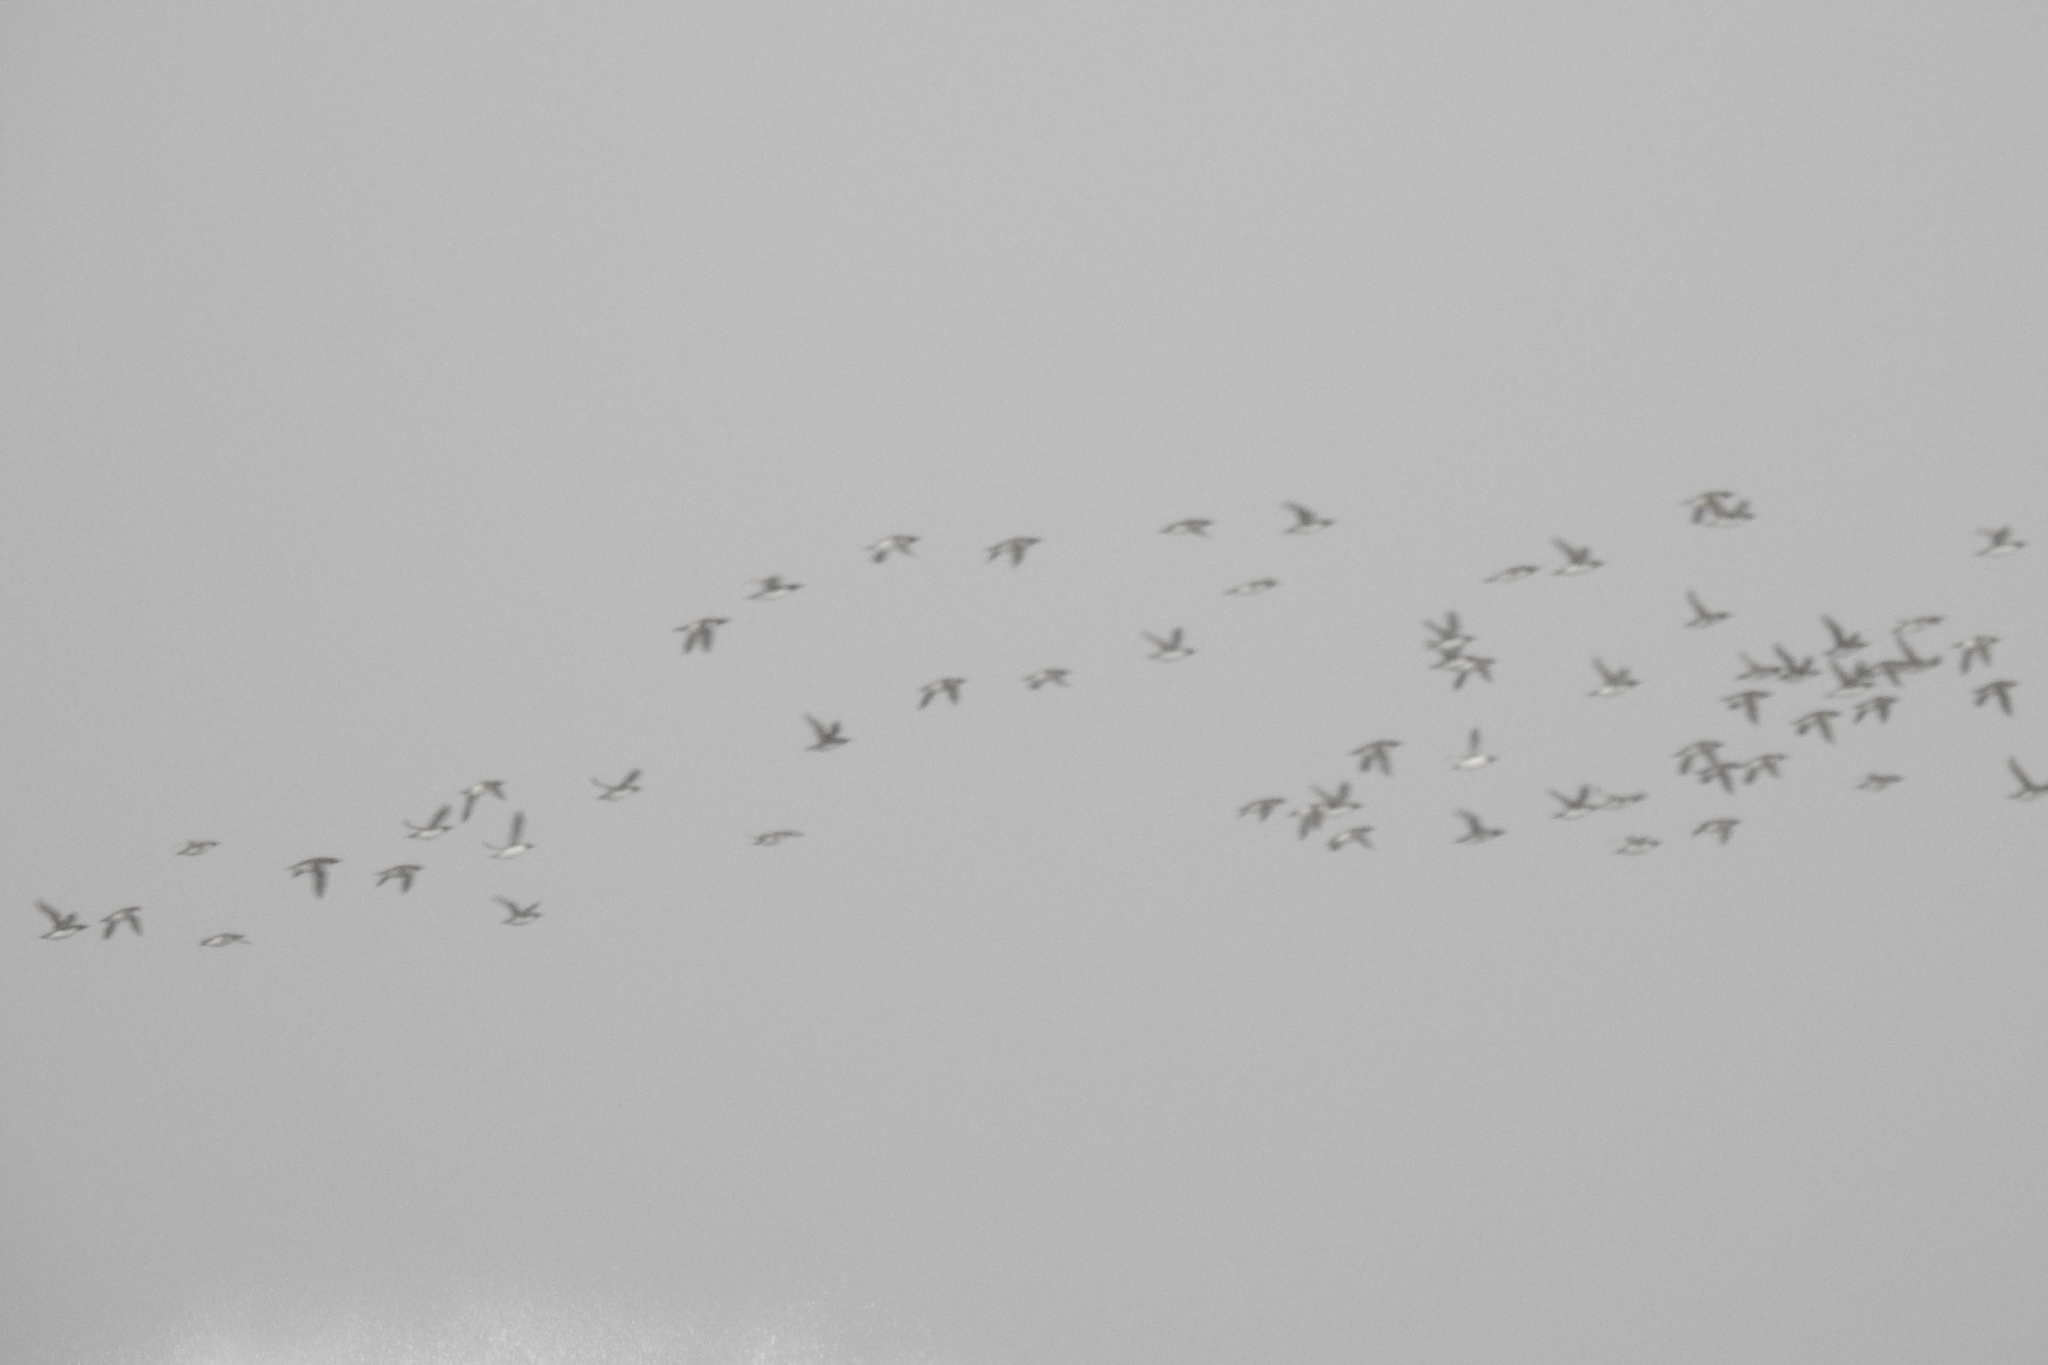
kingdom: Animalia
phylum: Chordata
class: Aves
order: Charadriiformes
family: Alcidae
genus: Uria
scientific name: Uria aalge
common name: Common murre
